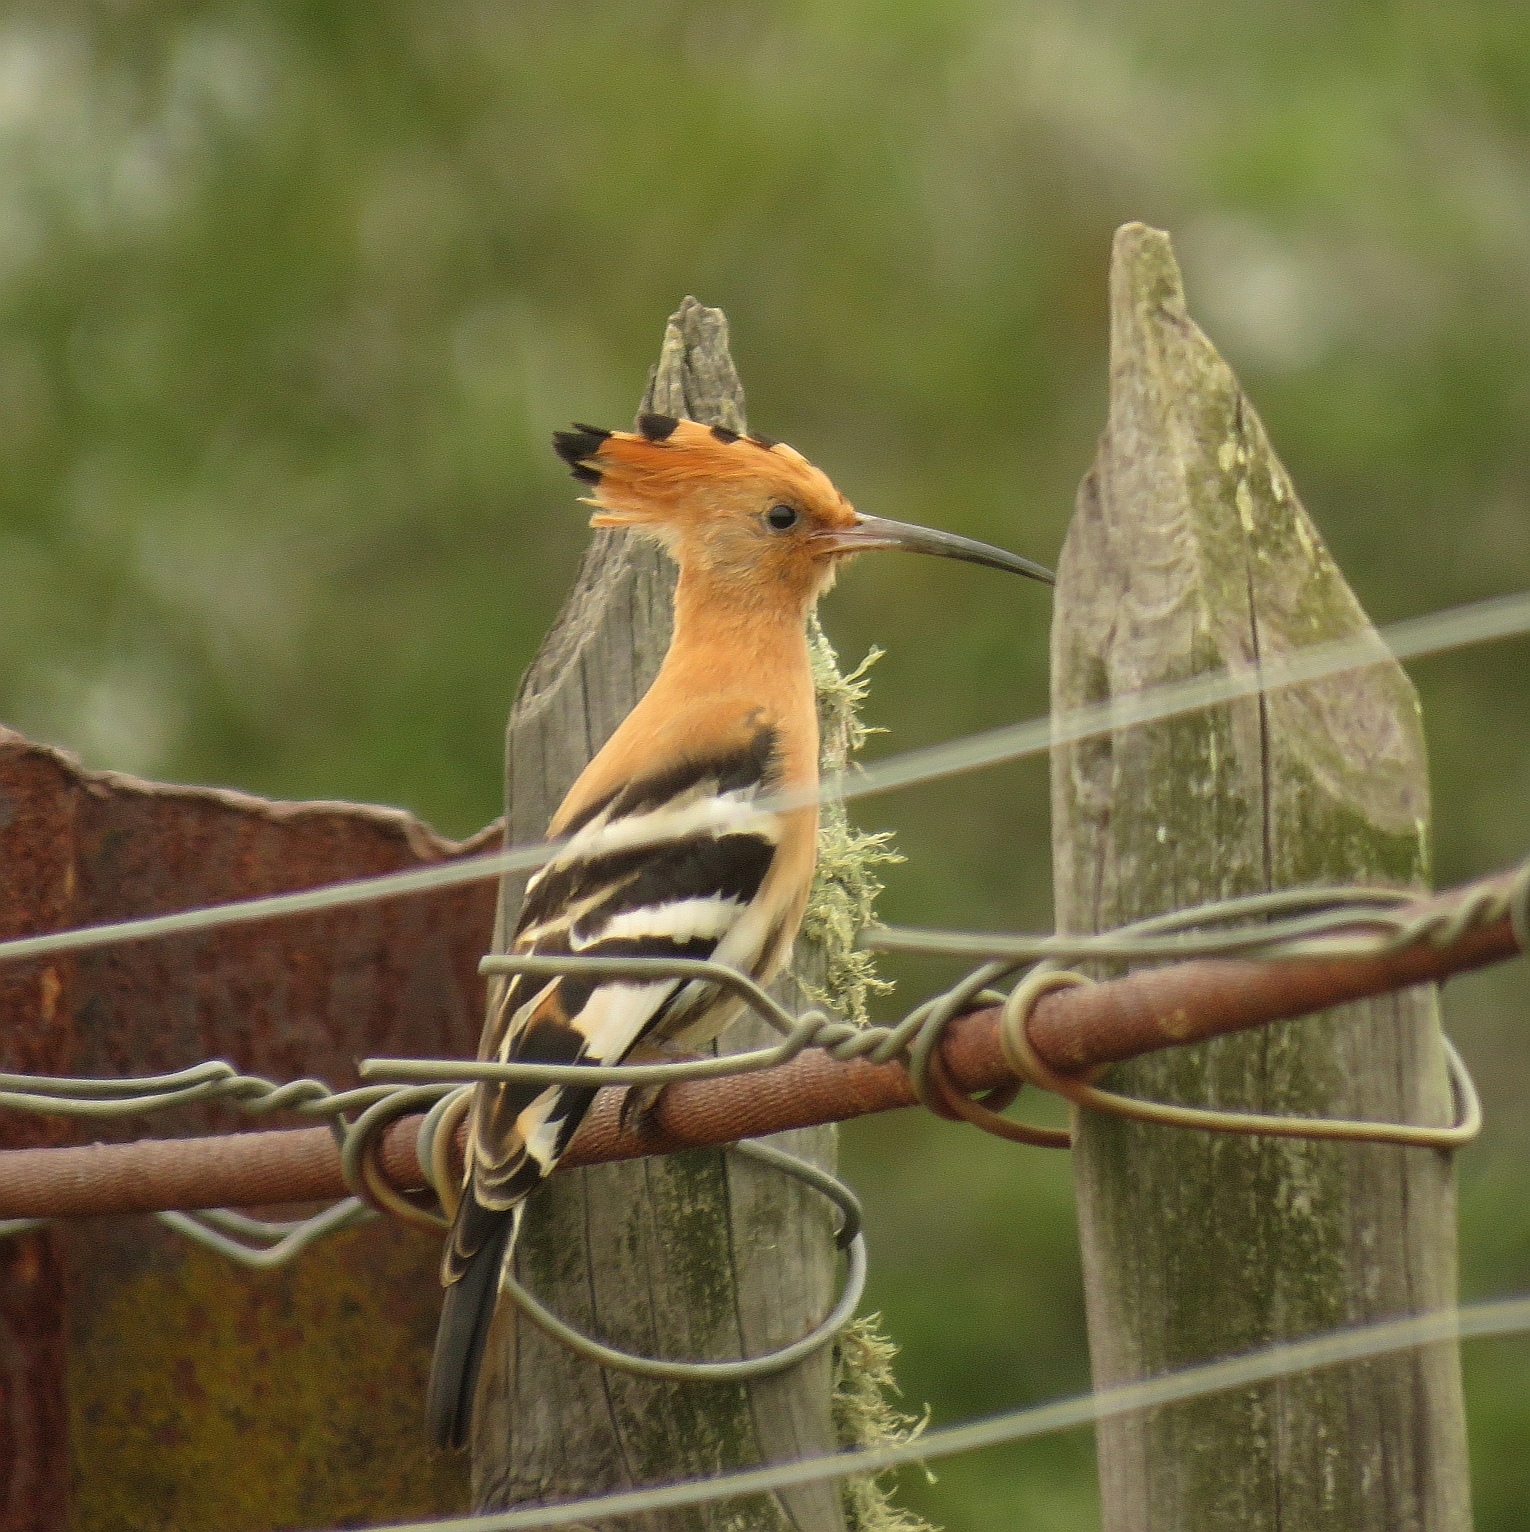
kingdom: Animalia
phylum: Chordata
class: Aves
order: Bucerotiformes
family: Upupidae
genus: Upupa
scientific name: Upupa africana
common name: African hoopoe
